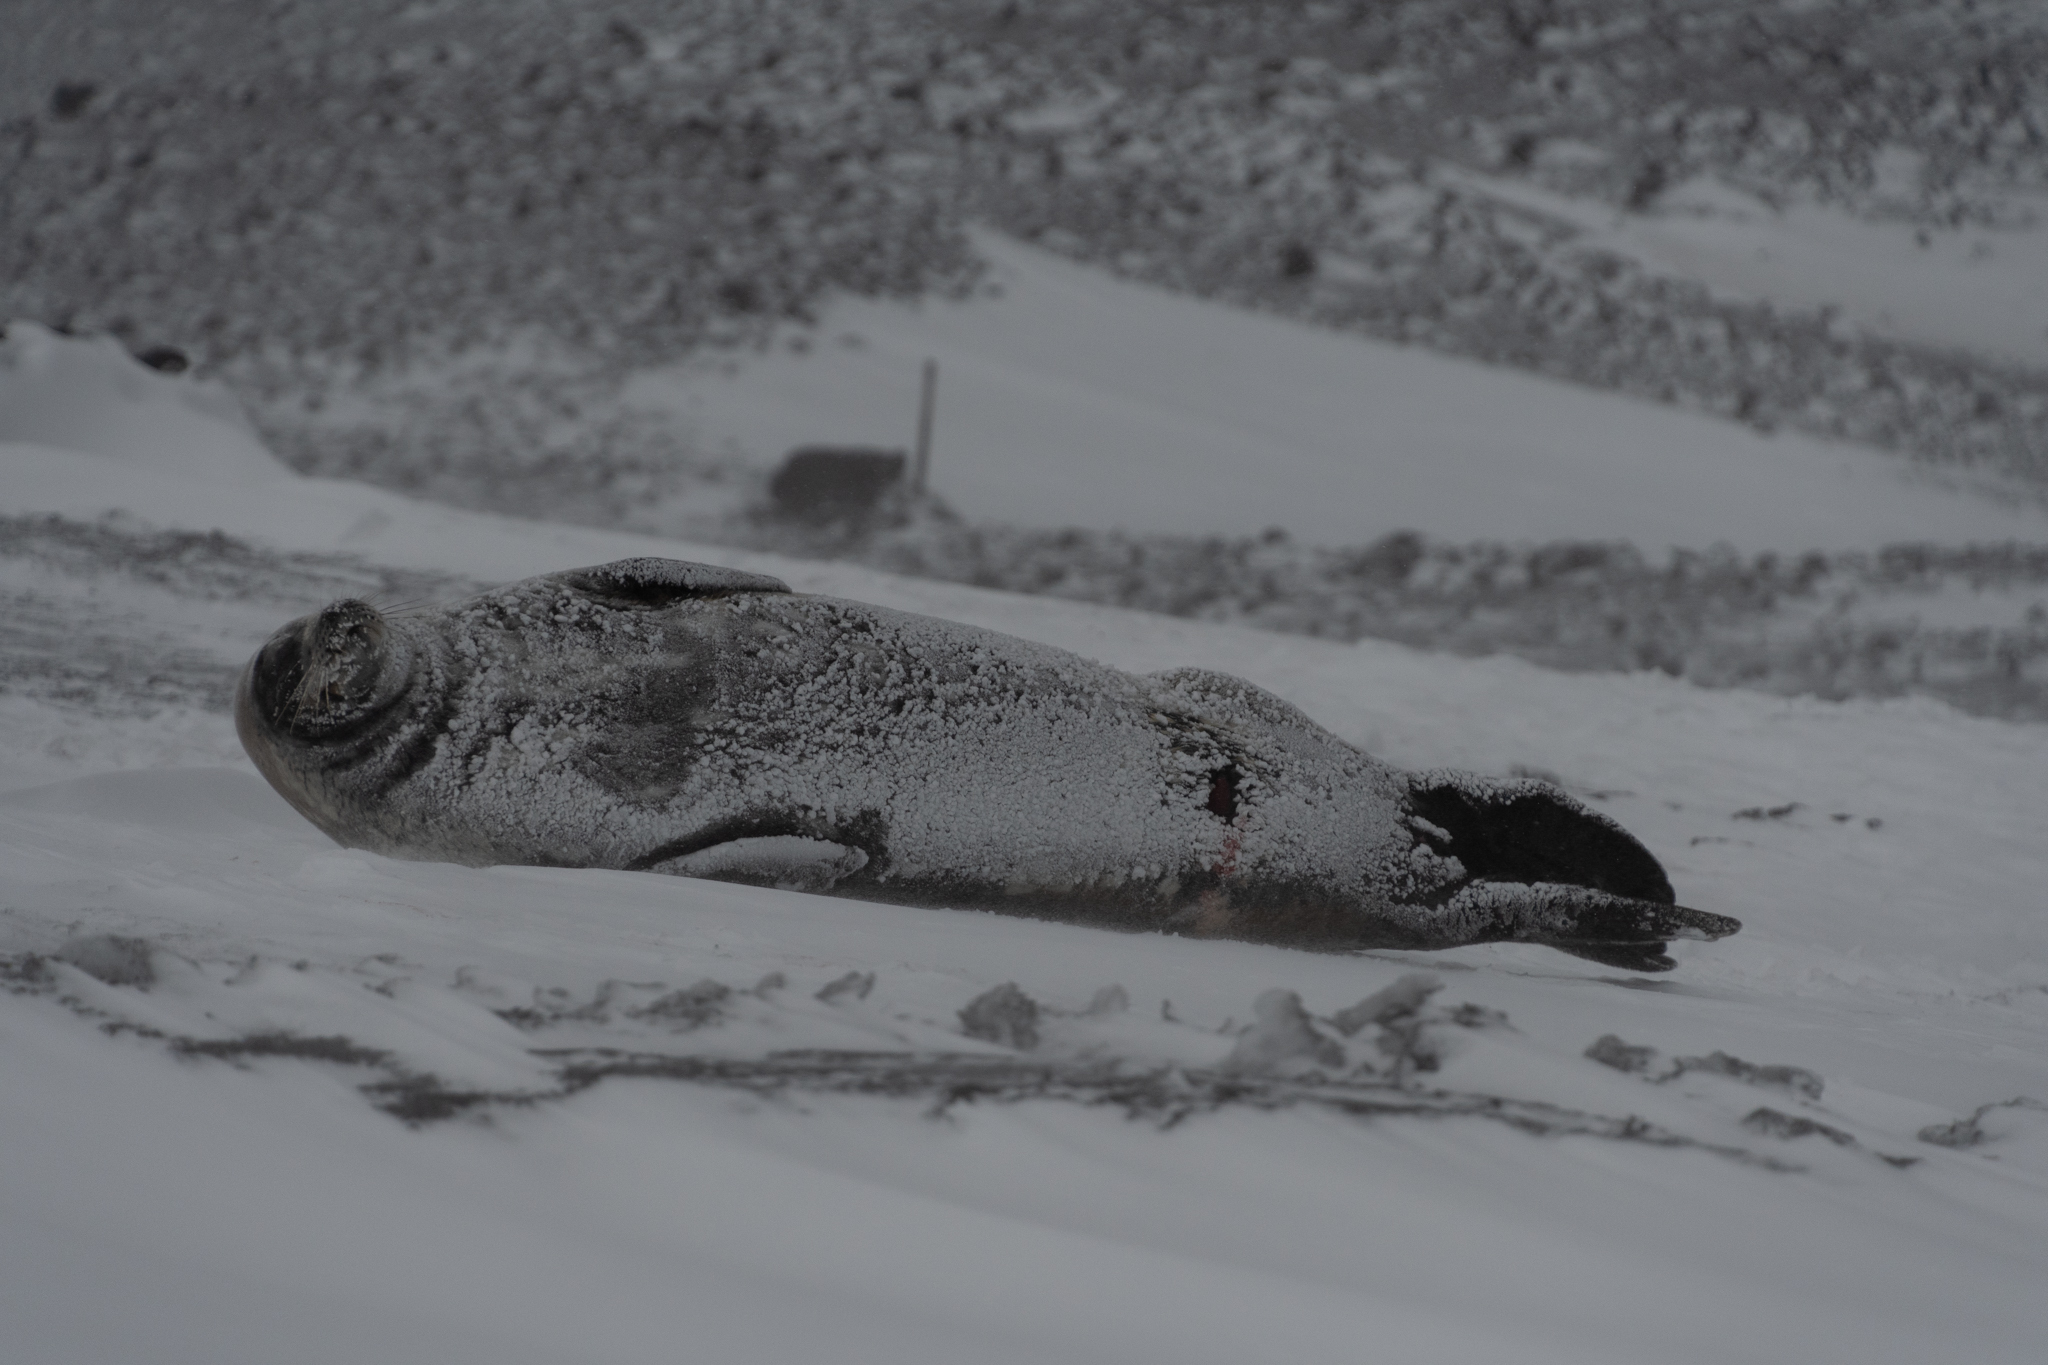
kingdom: Animalia
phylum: Chordata
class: Mammalia
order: Carnivora
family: Phocidae
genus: Leptonychotes
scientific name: Leptonychotes weddellii
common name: Weddell seal
